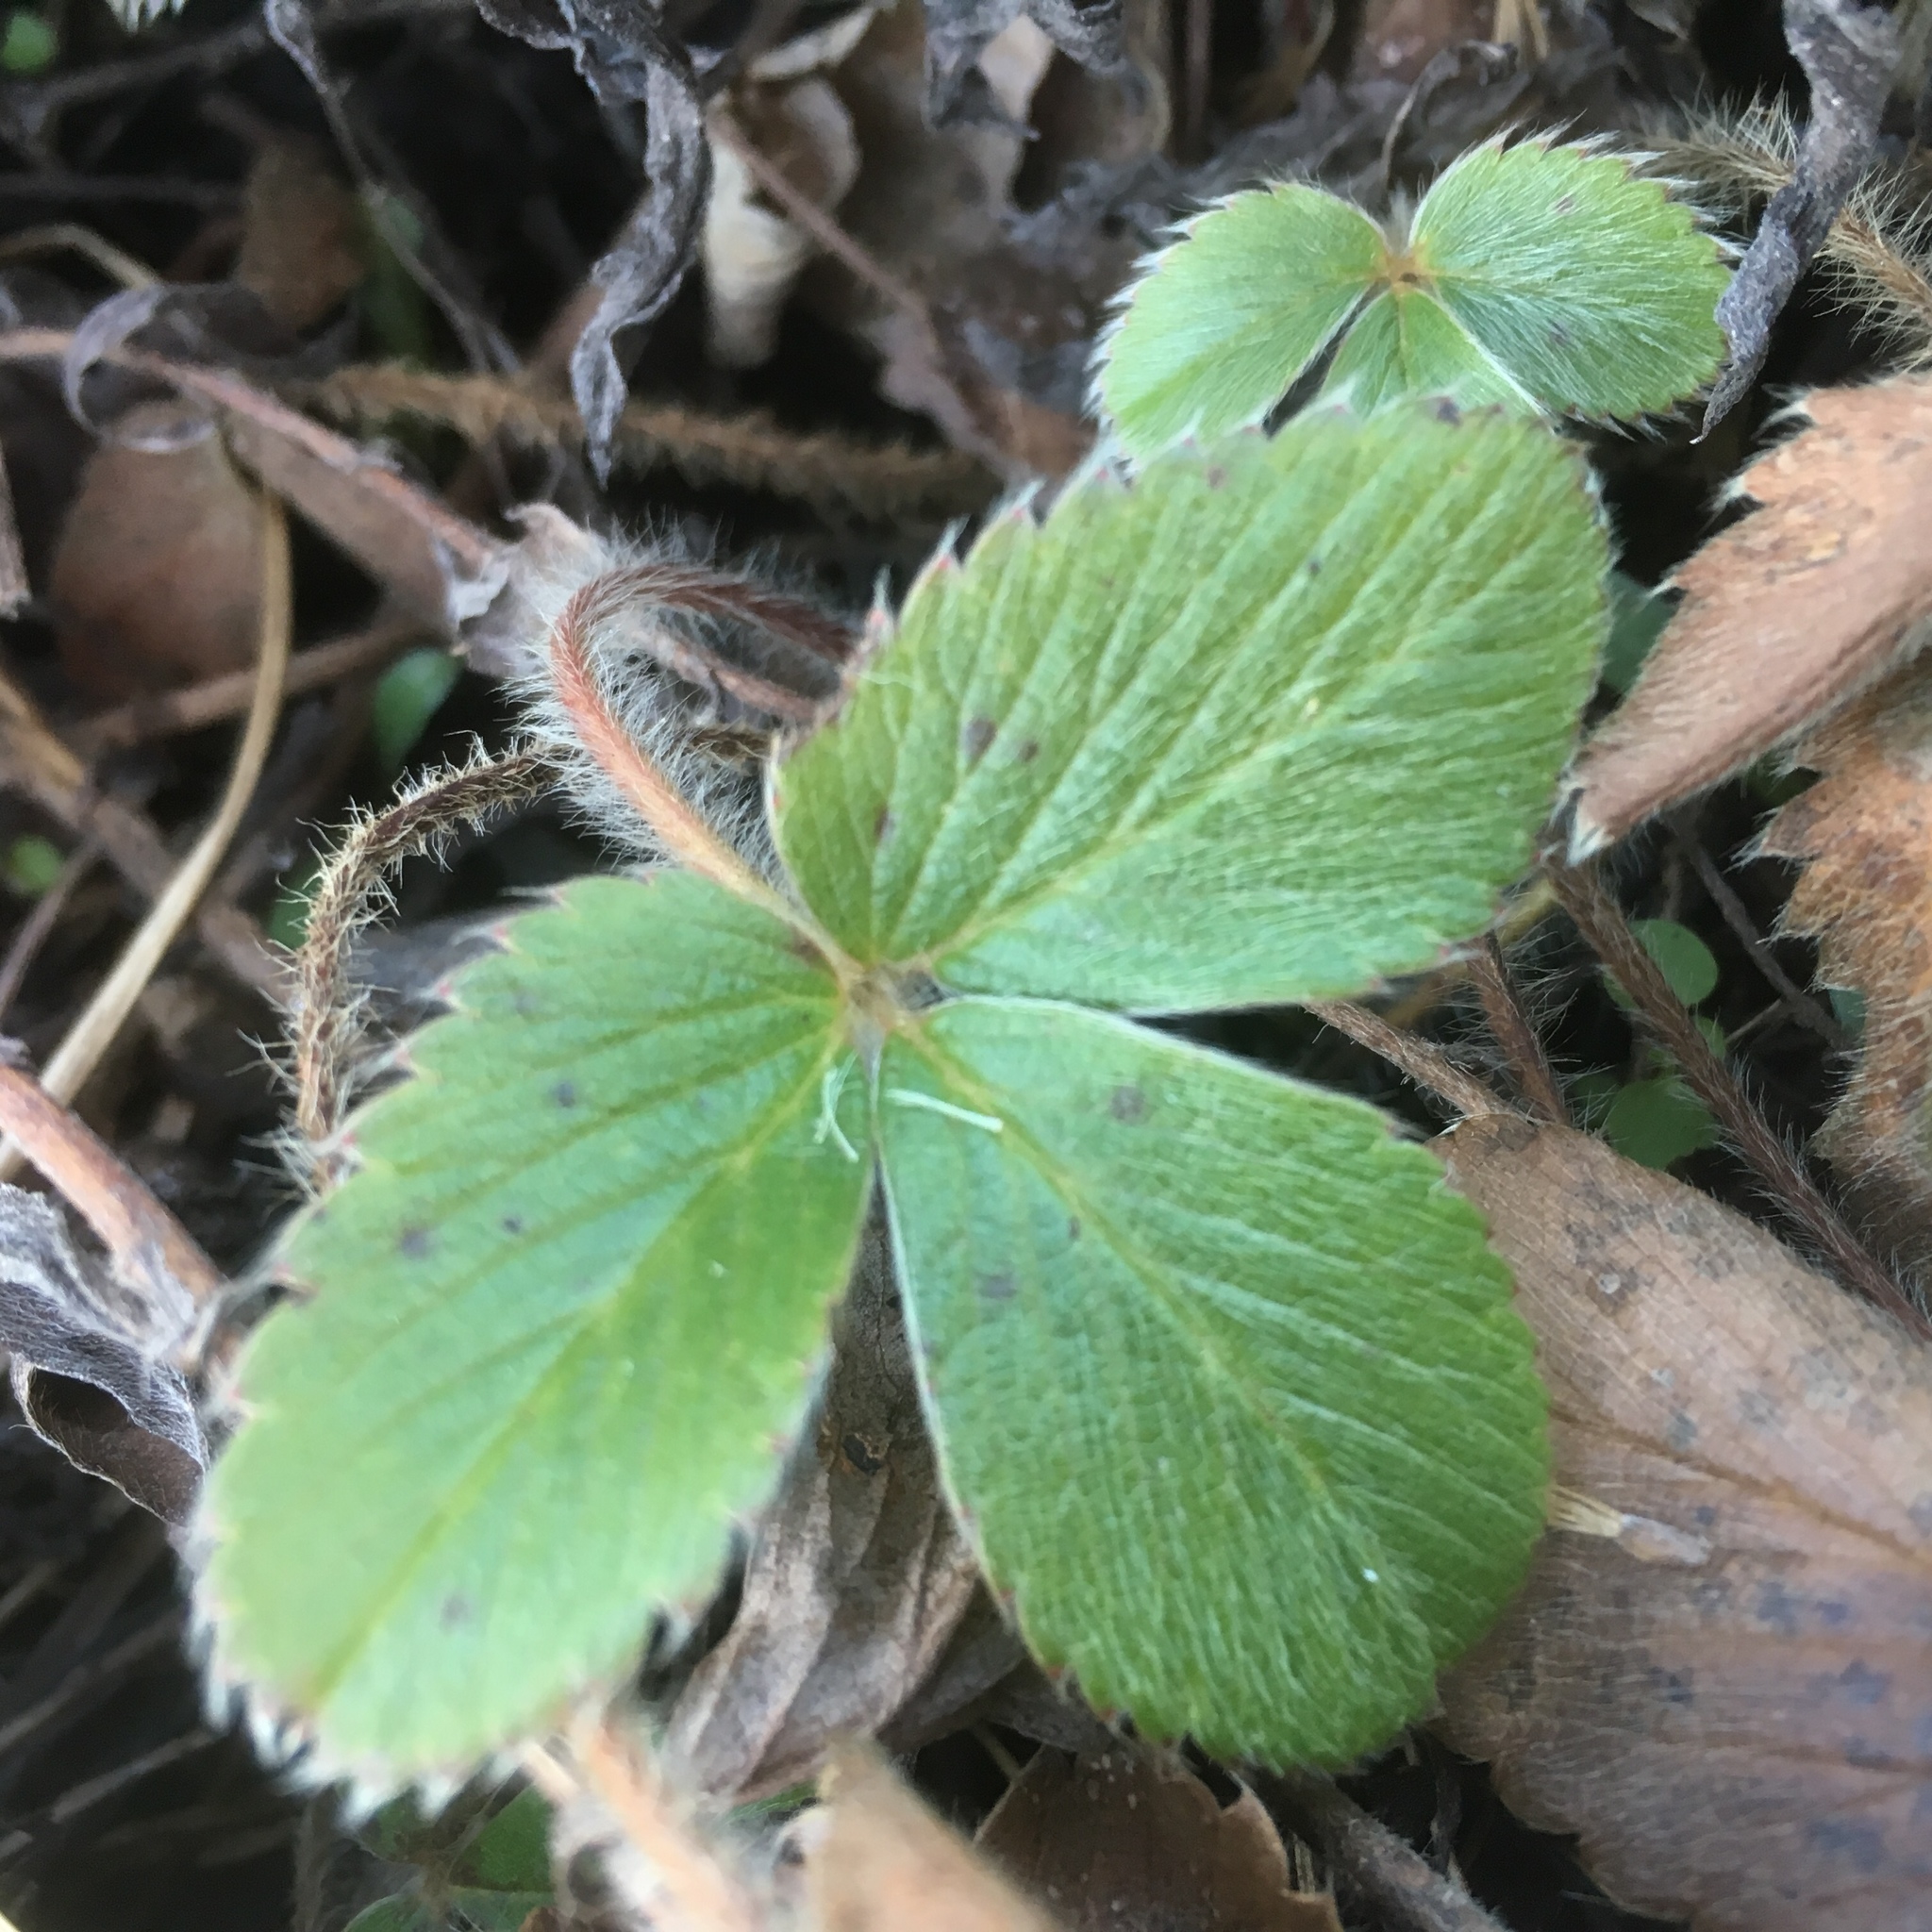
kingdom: Plantae
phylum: Tracheophyta
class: Magnoliopsida
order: Rosales
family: Rosaceae
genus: Fragaria
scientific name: Fragaria virginiana
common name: Thickleaved wild strawberry
